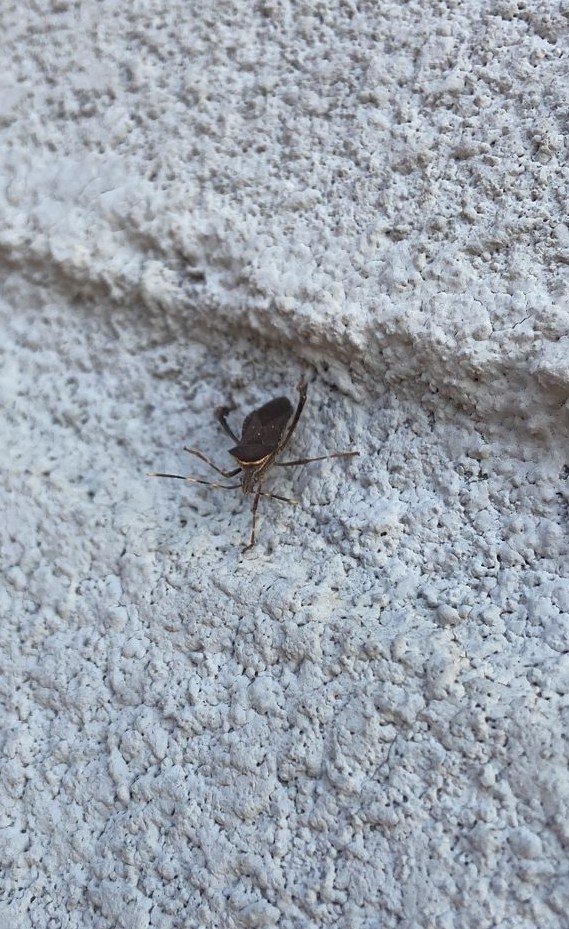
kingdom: Animalia
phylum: Arthropoda
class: Insecta
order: Hemiptera
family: Coreidae
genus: Leptoglossus
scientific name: Leptoglossus gonagra
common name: Citron bug
